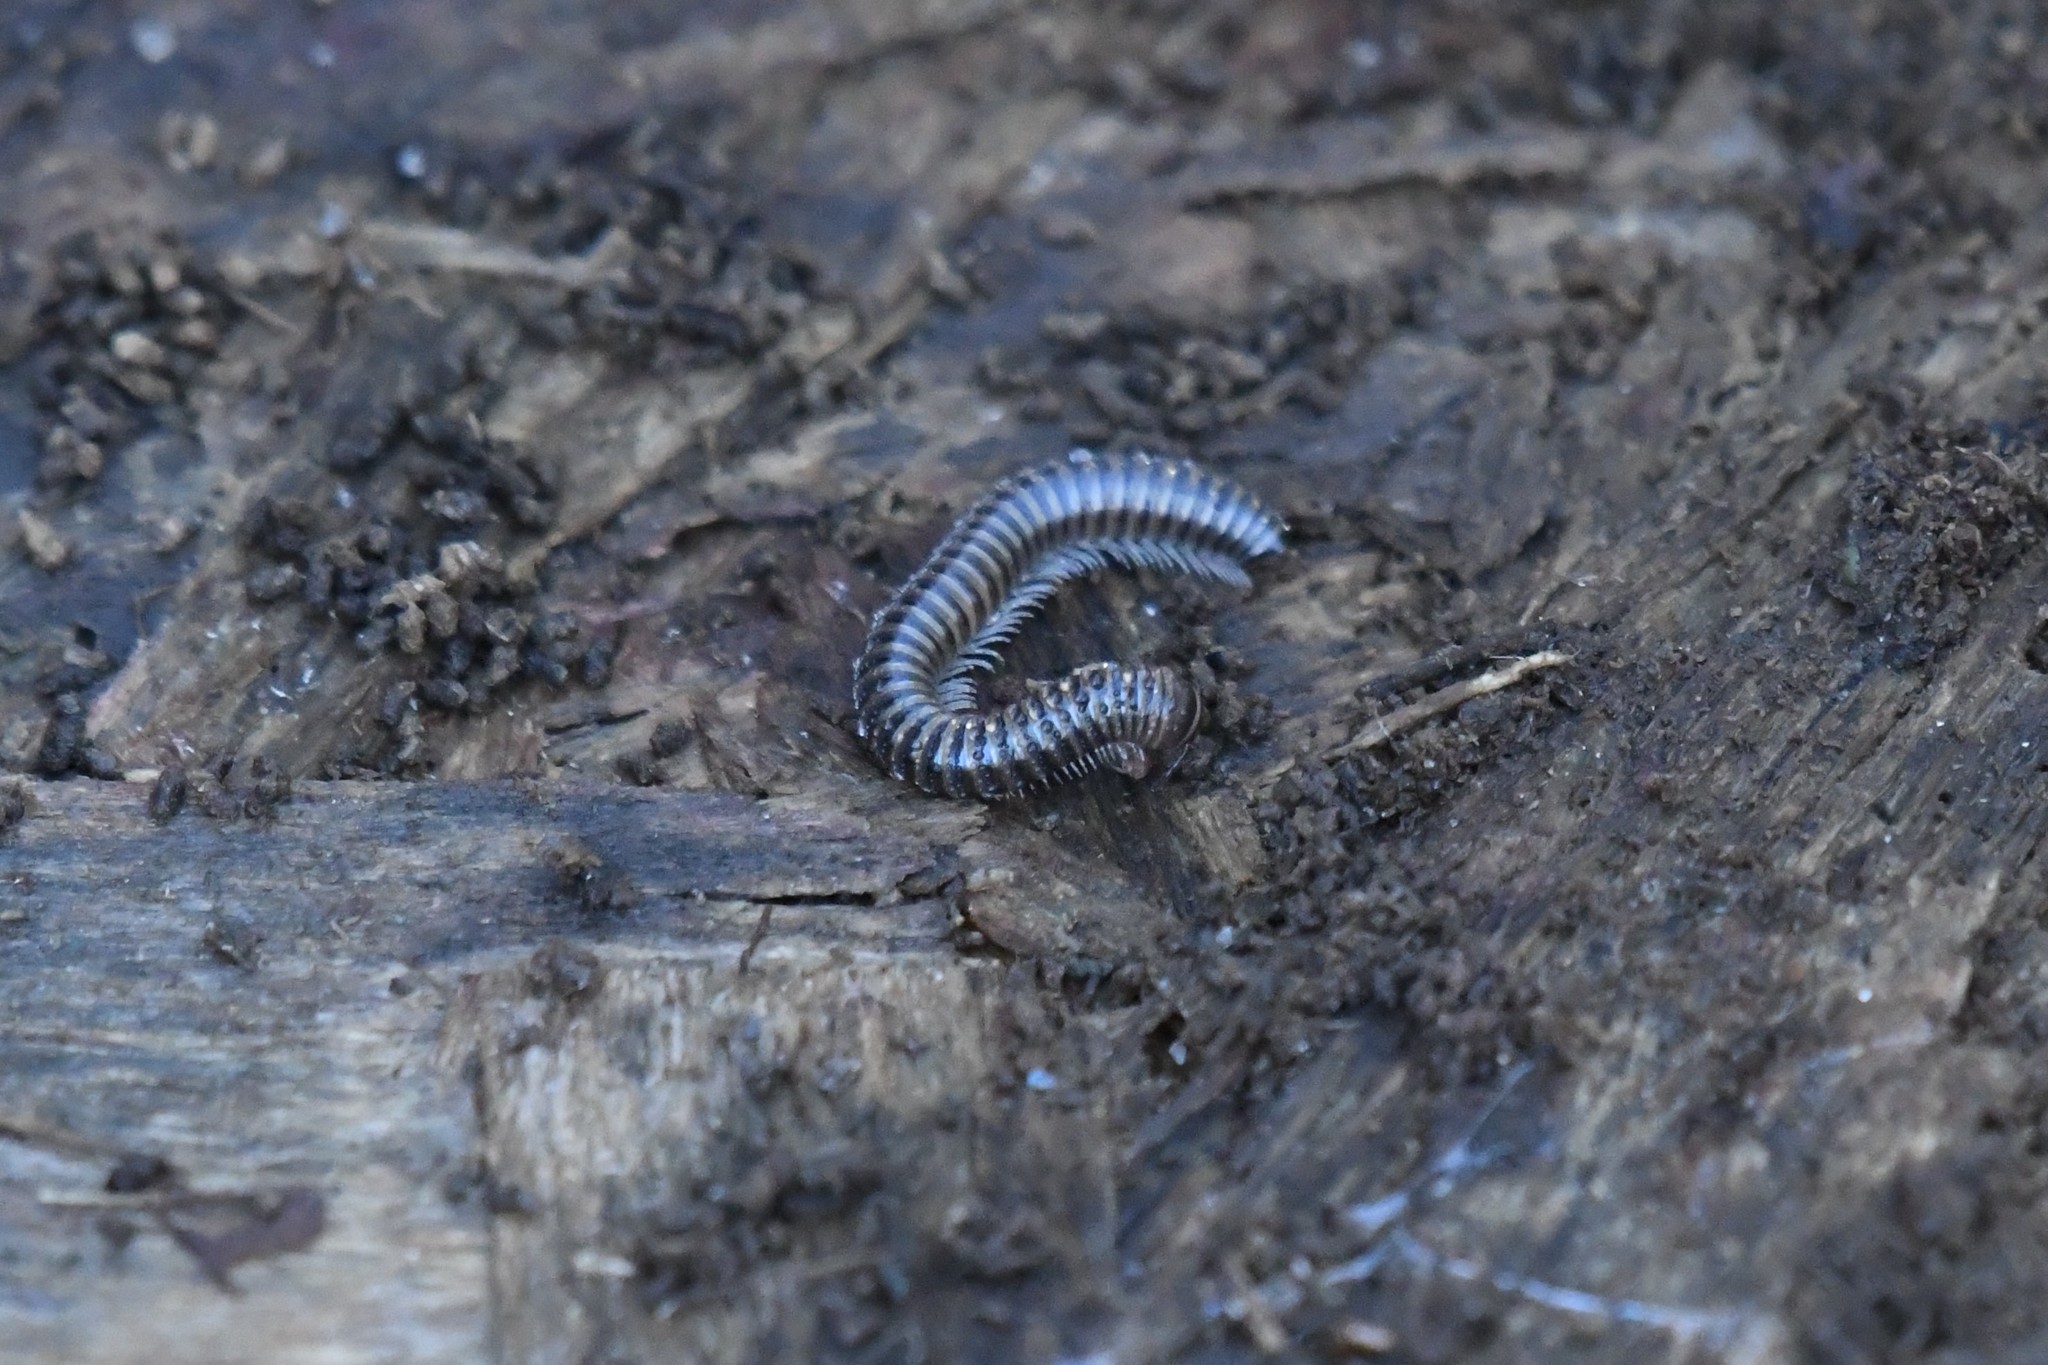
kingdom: Animalia
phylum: Arthropoda
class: Diplopoda
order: Julida
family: Julidae
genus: Cylindroiulus
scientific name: Cylindroiulus caeruleocinctus
